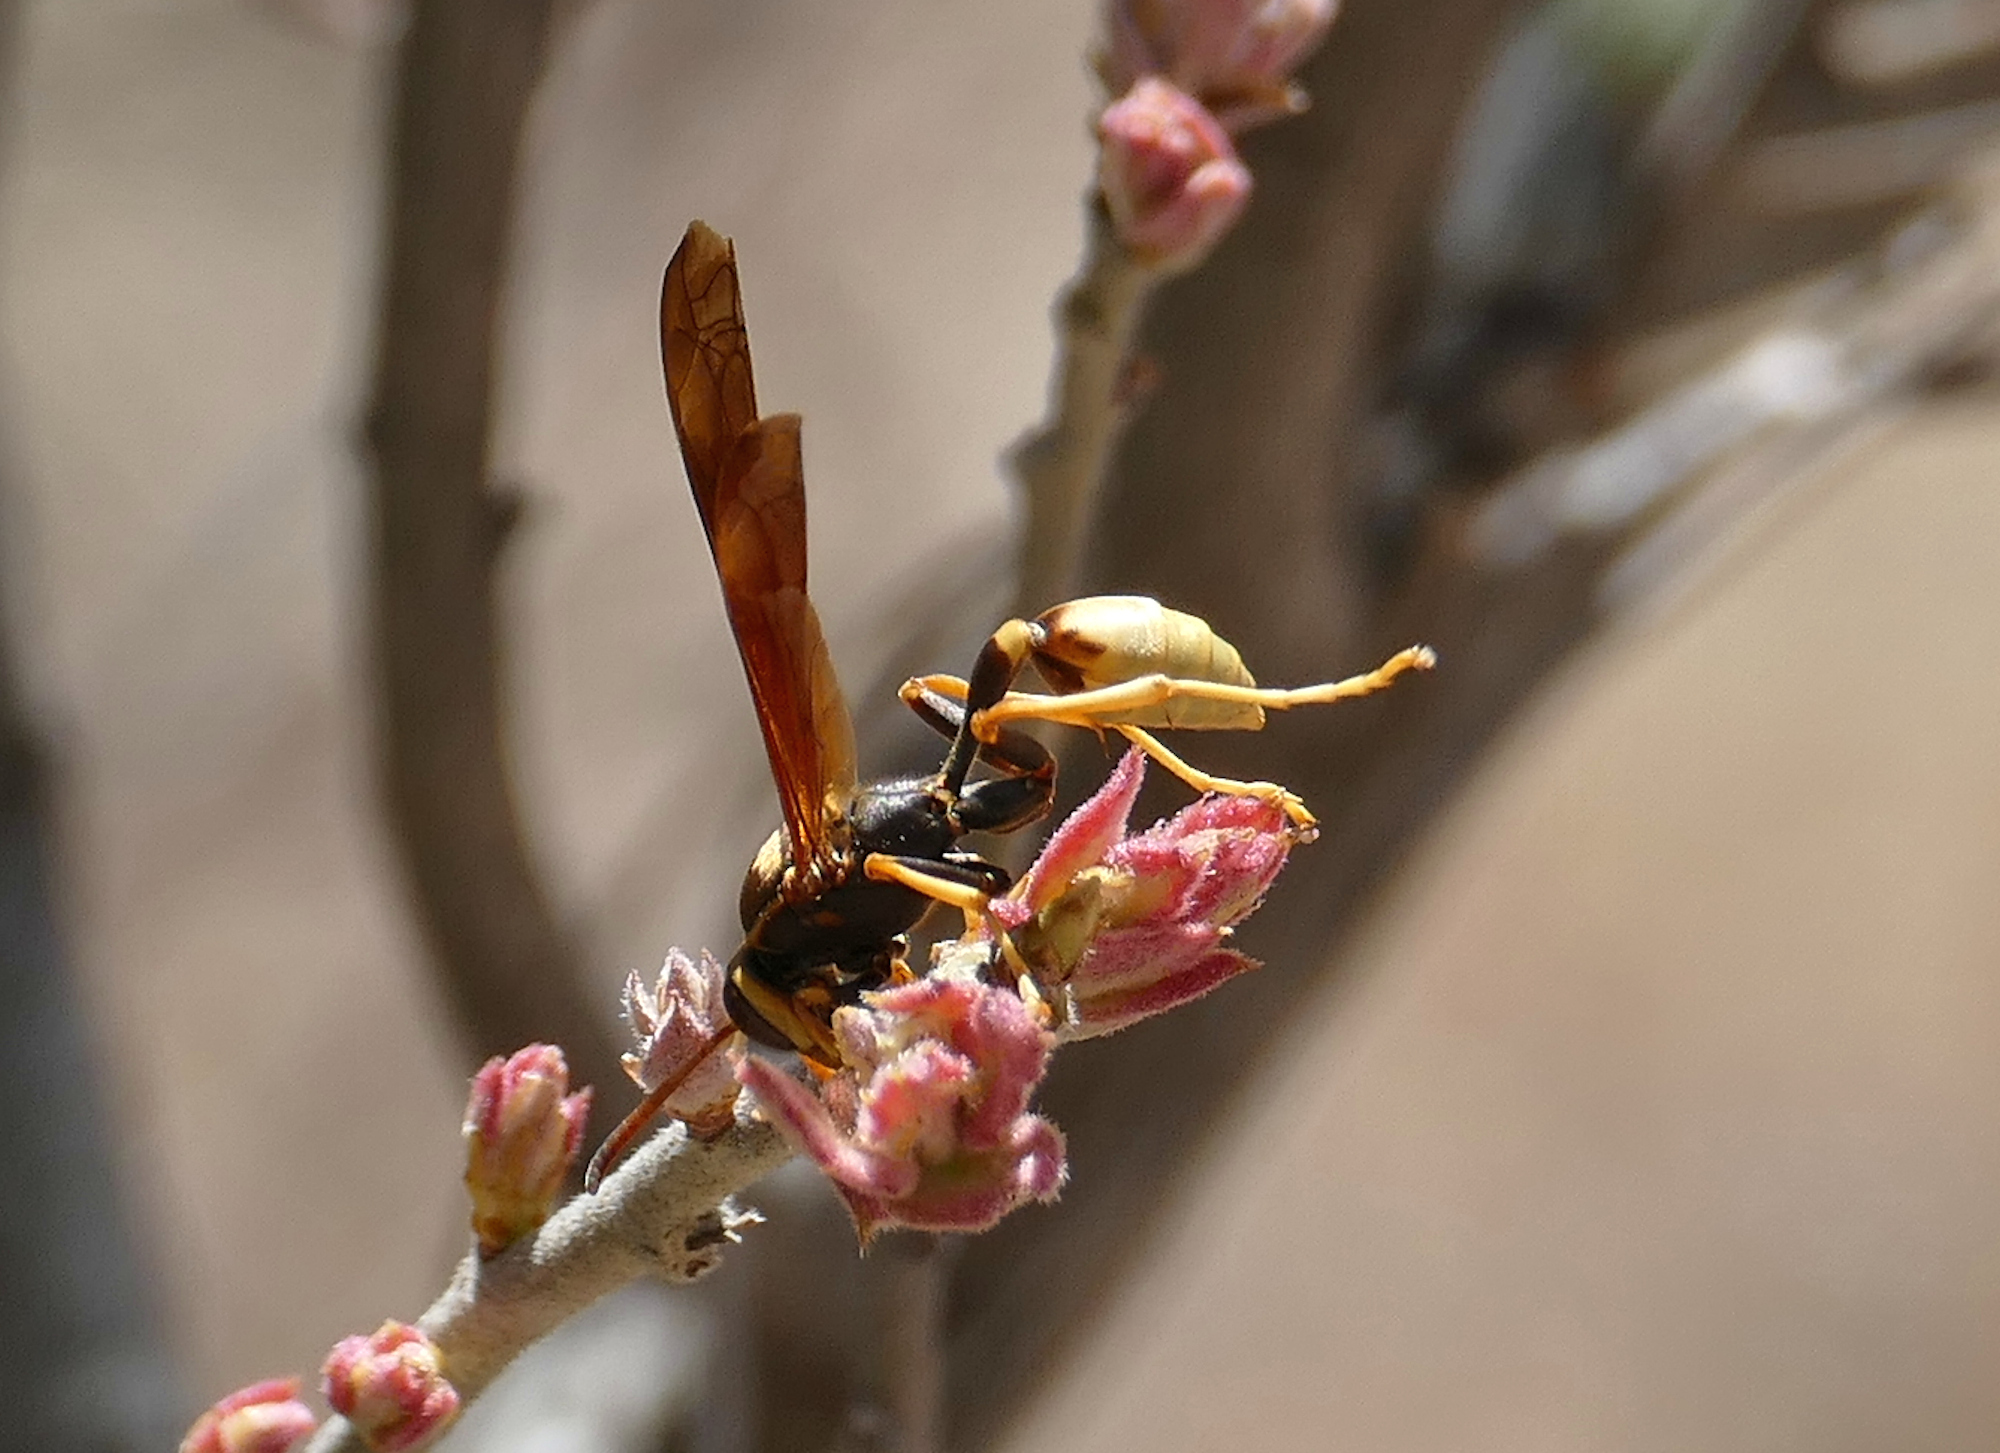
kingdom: Animalia
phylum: Arthropoda
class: Insecta
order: Hymenoptera
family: Vespidae
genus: Mischocyttarus
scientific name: Mischocyttarus flavitarsis
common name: Wasp
